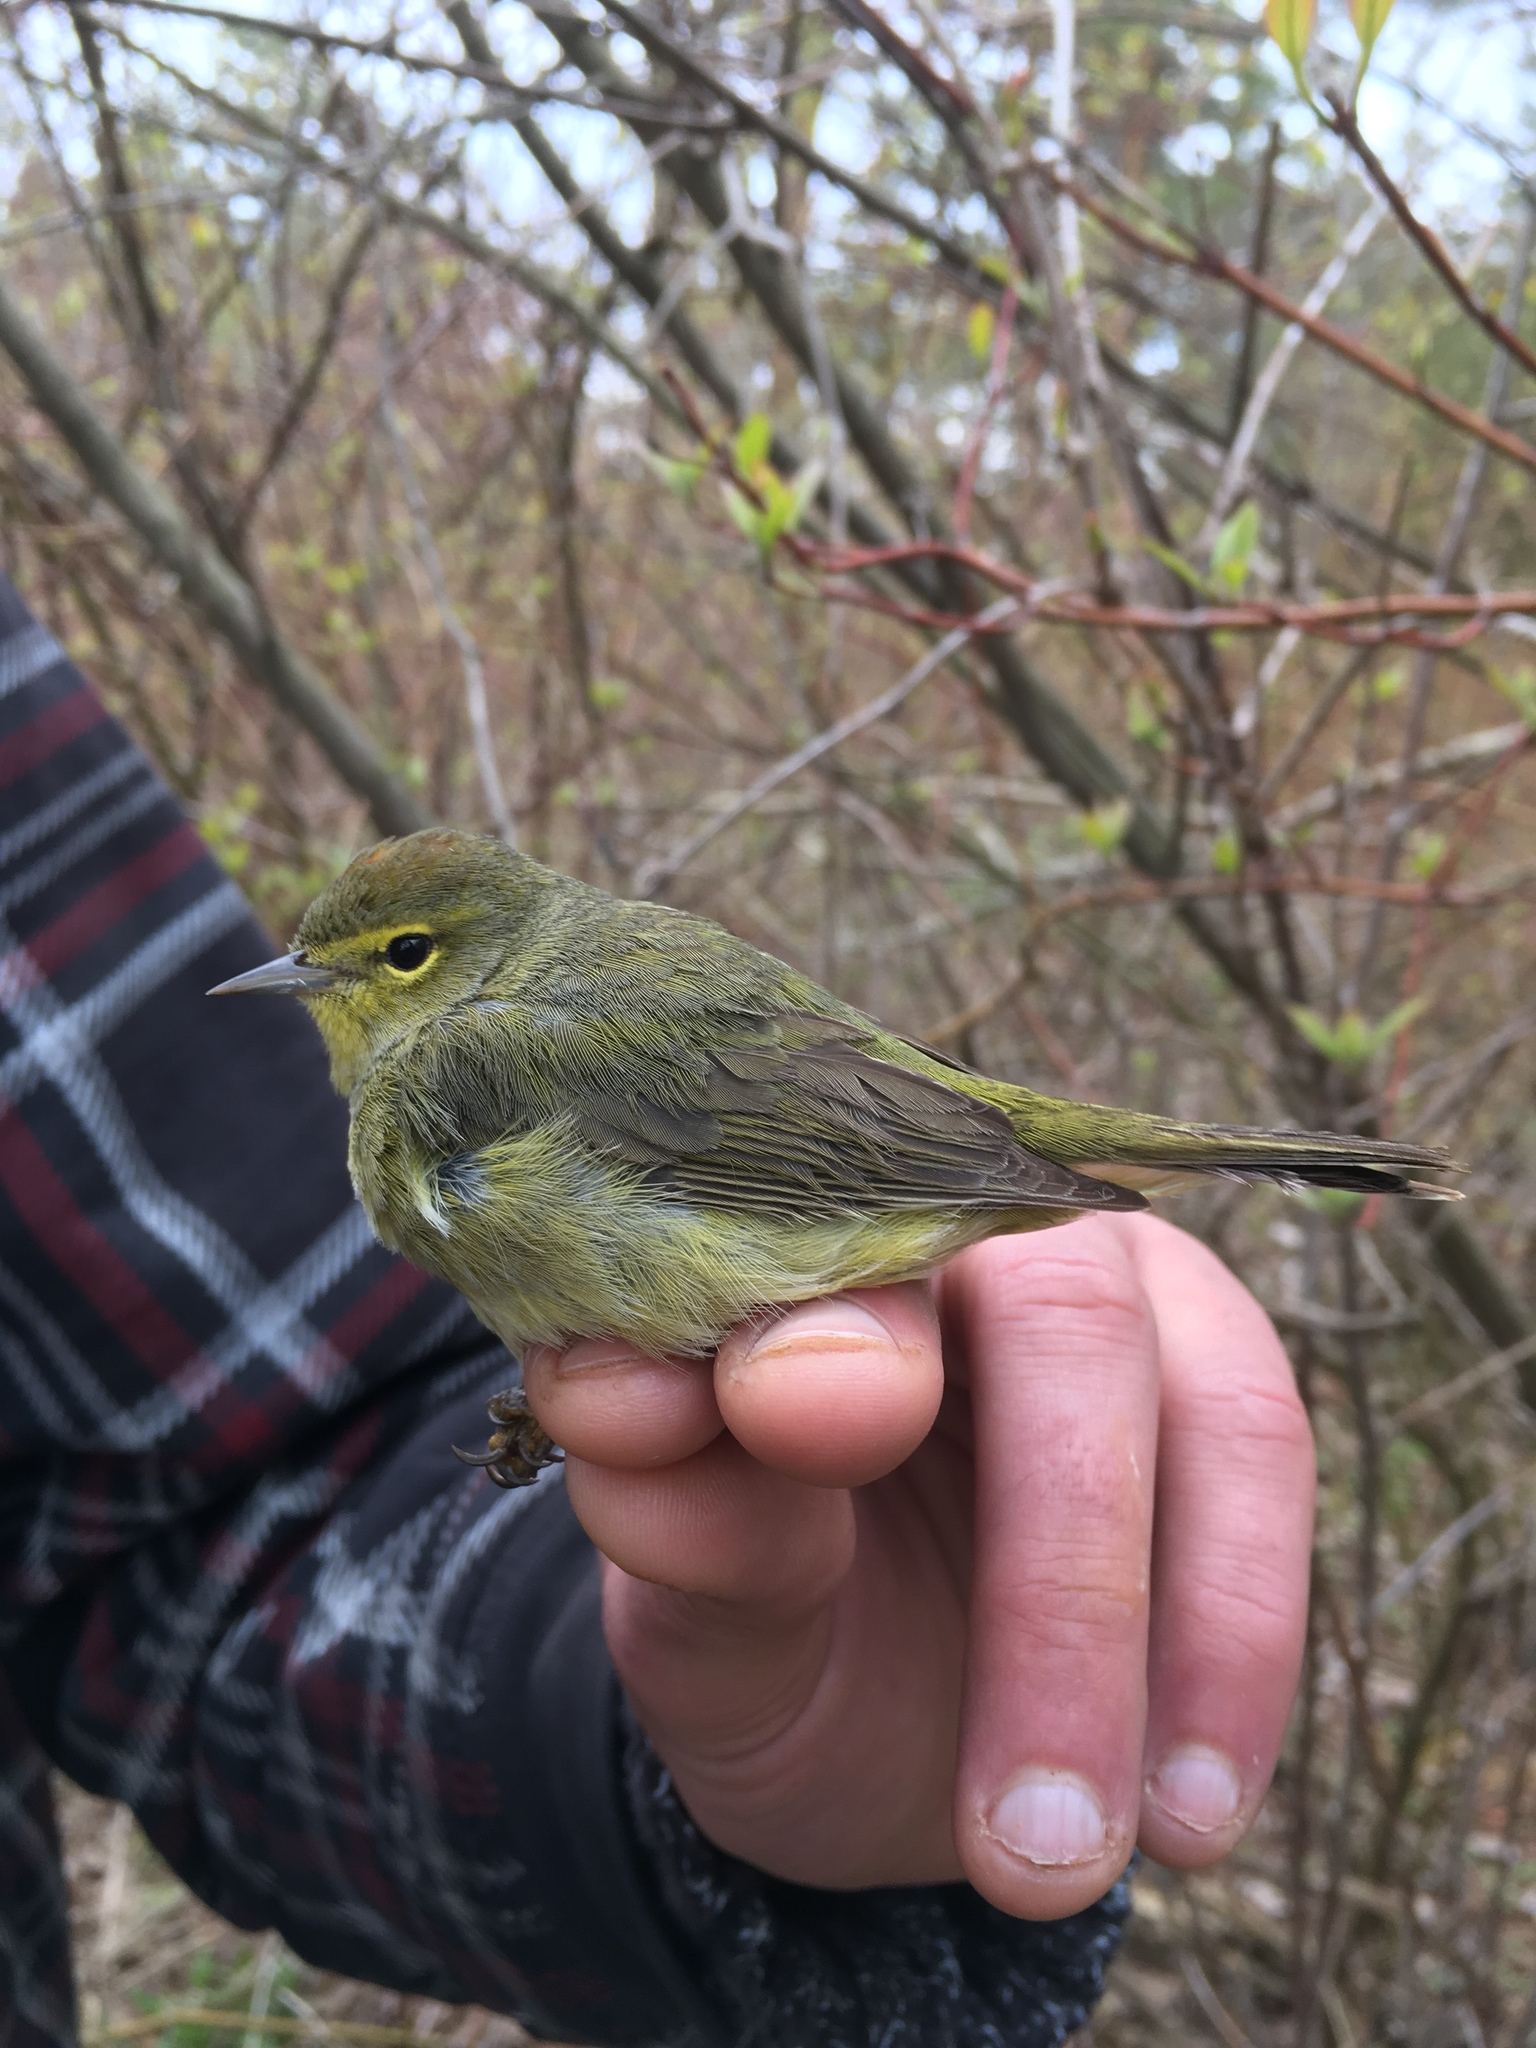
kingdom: Animalia
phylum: Chordata
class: Aves
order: Passeriformes
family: Parulidae
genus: Leiothlypis
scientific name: Leiothlypis celata
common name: Orange-crowned warbler
